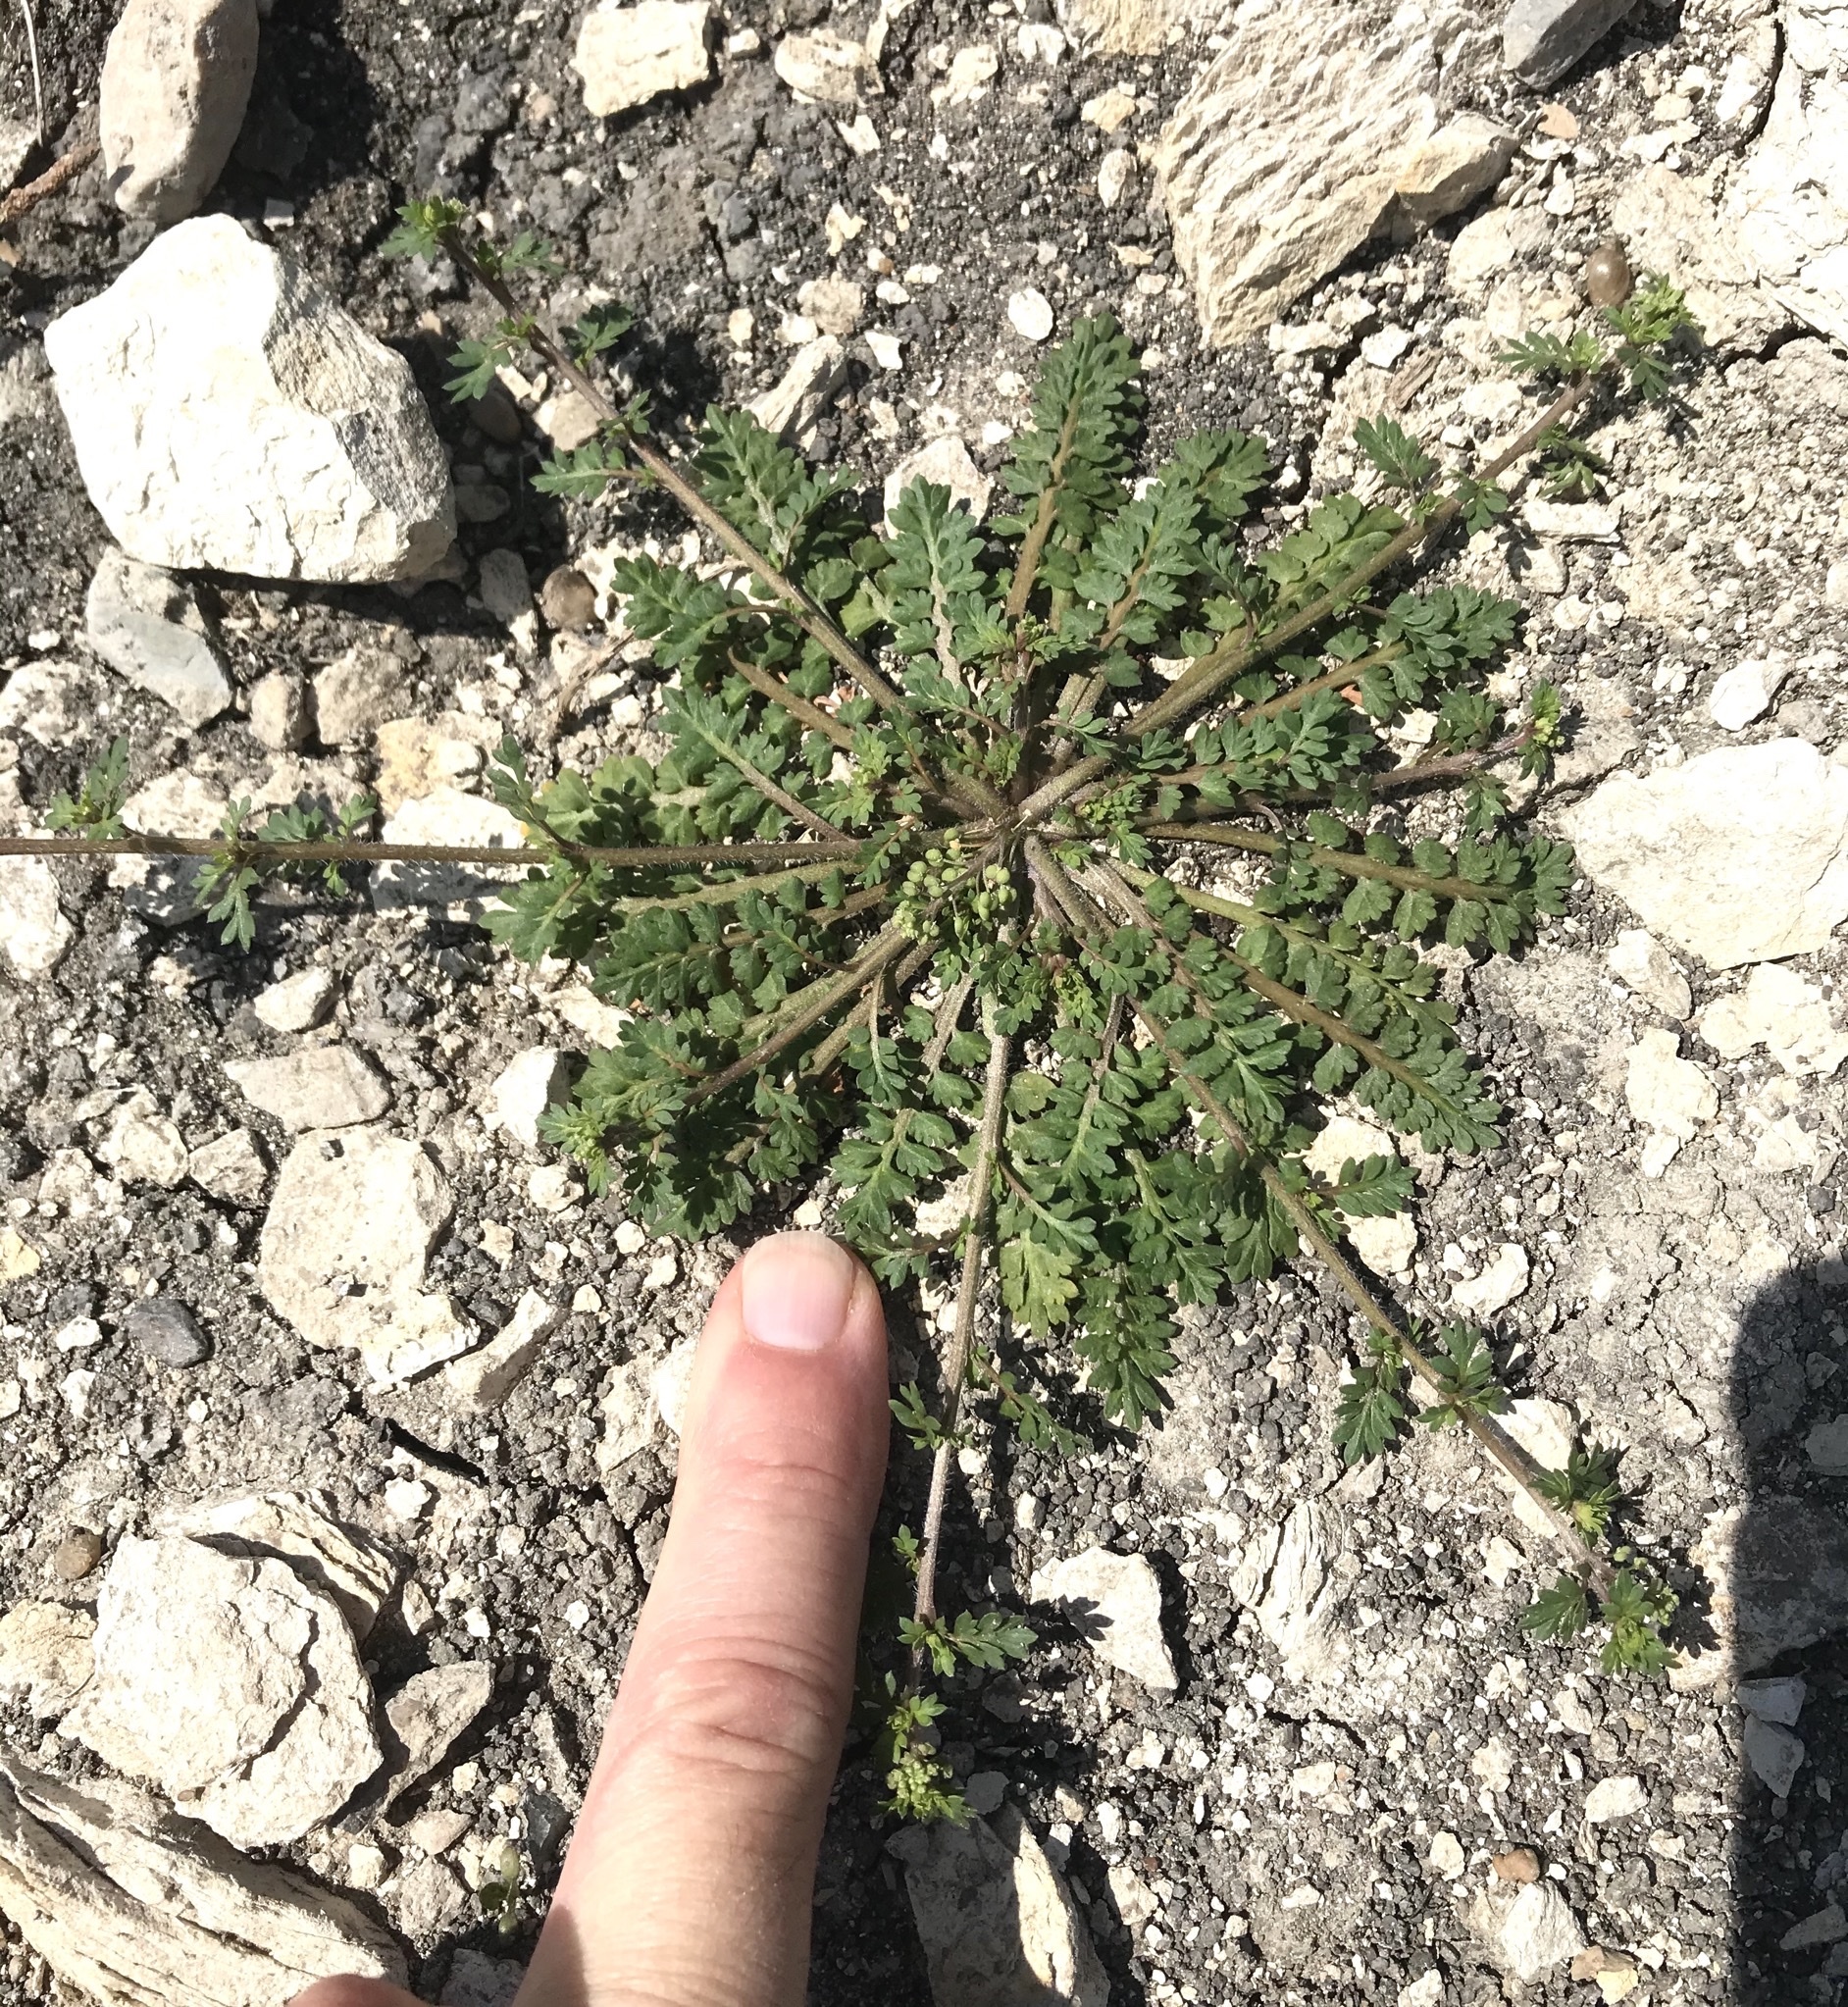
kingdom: Plantae
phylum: Tracheophyta
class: Magnoliopsida
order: Geraniales
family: Geraniaceae
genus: Erodium
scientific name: Erodium cicutarium
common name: Common stork's-bill
